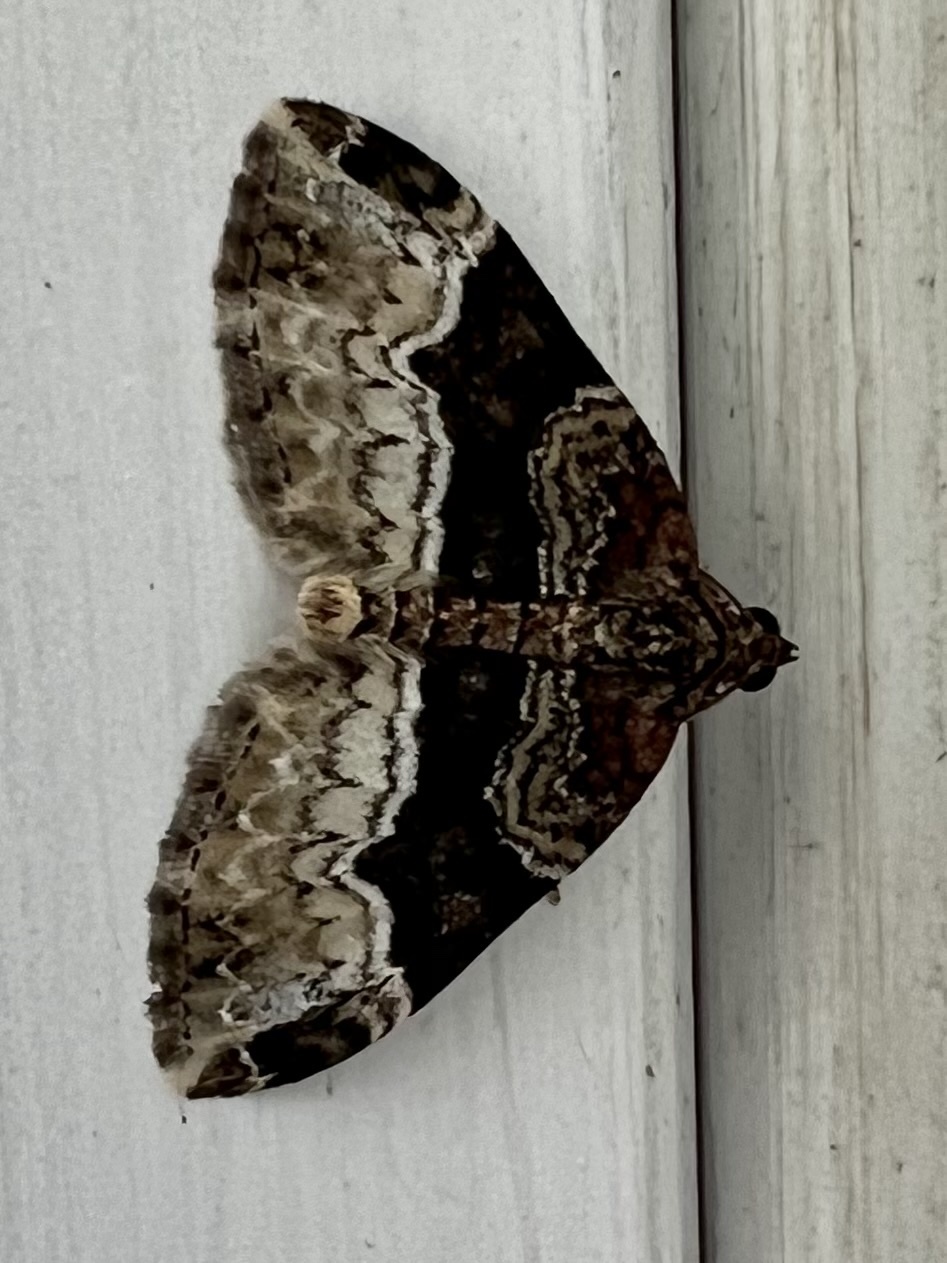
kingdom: Animalia
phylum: Arthropoda
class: Insecta
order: Lepidoptera
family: Geometridae
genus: Euphyia
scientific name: Euphyia intermediata
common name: Sharp-angled carpet
